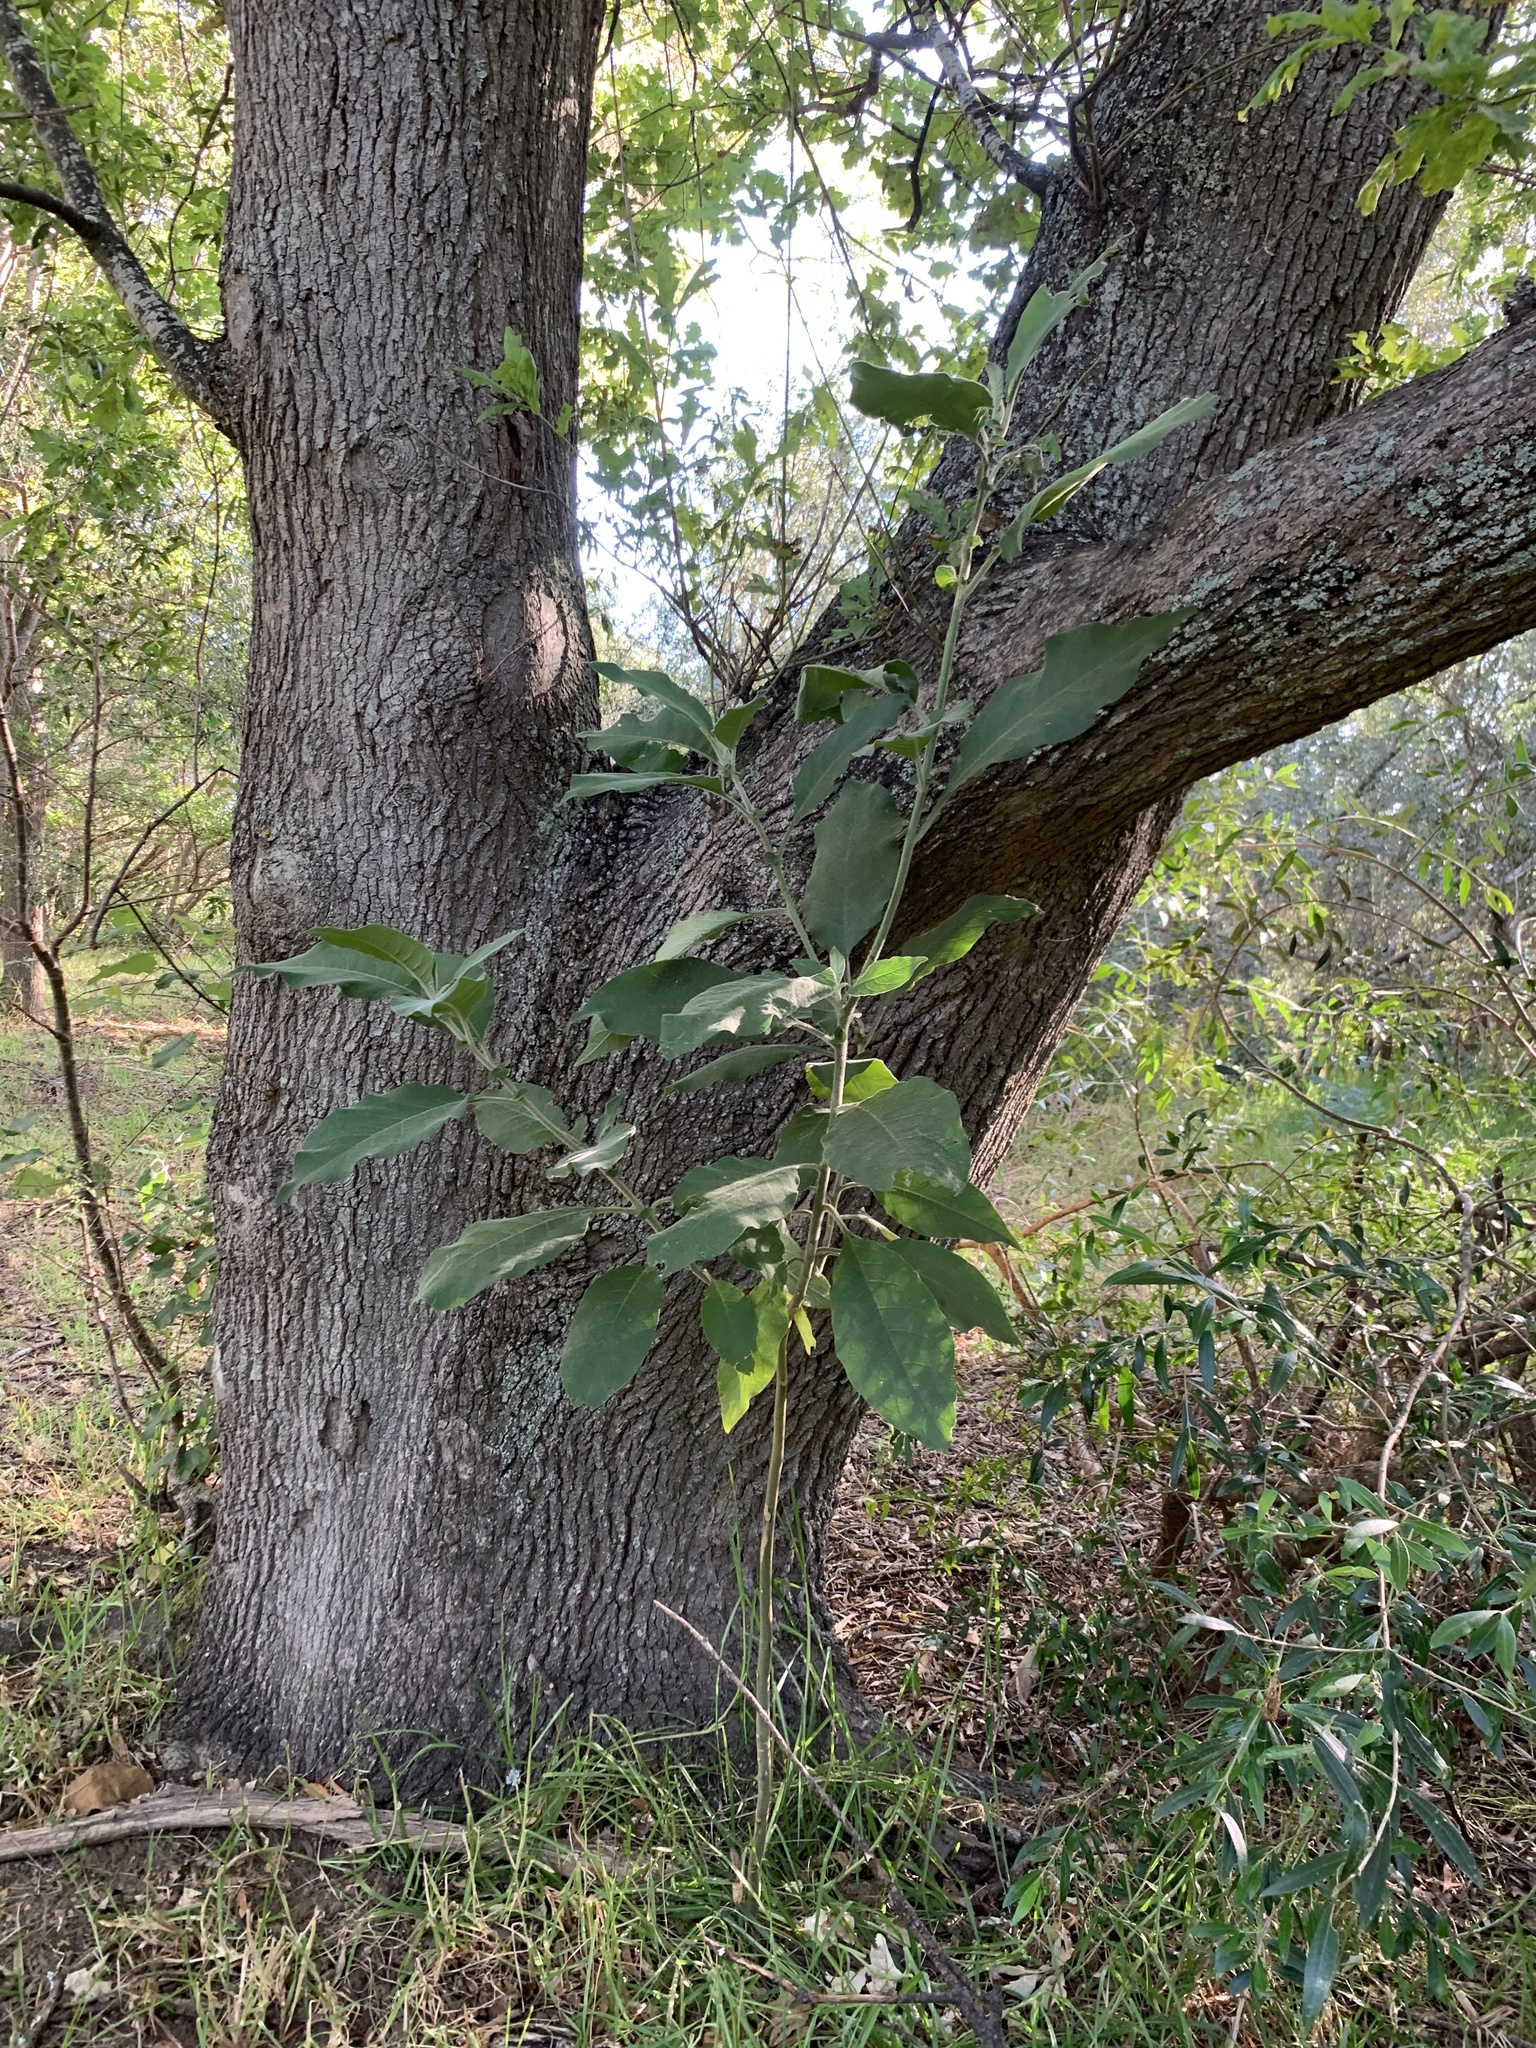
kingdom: Plantae
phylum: Tracheophyta
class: Magnoliopsida
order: Solanales
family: Solanaceae
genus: Solanum
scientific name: Solanum mauritianum
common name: Earleaf nightshade
